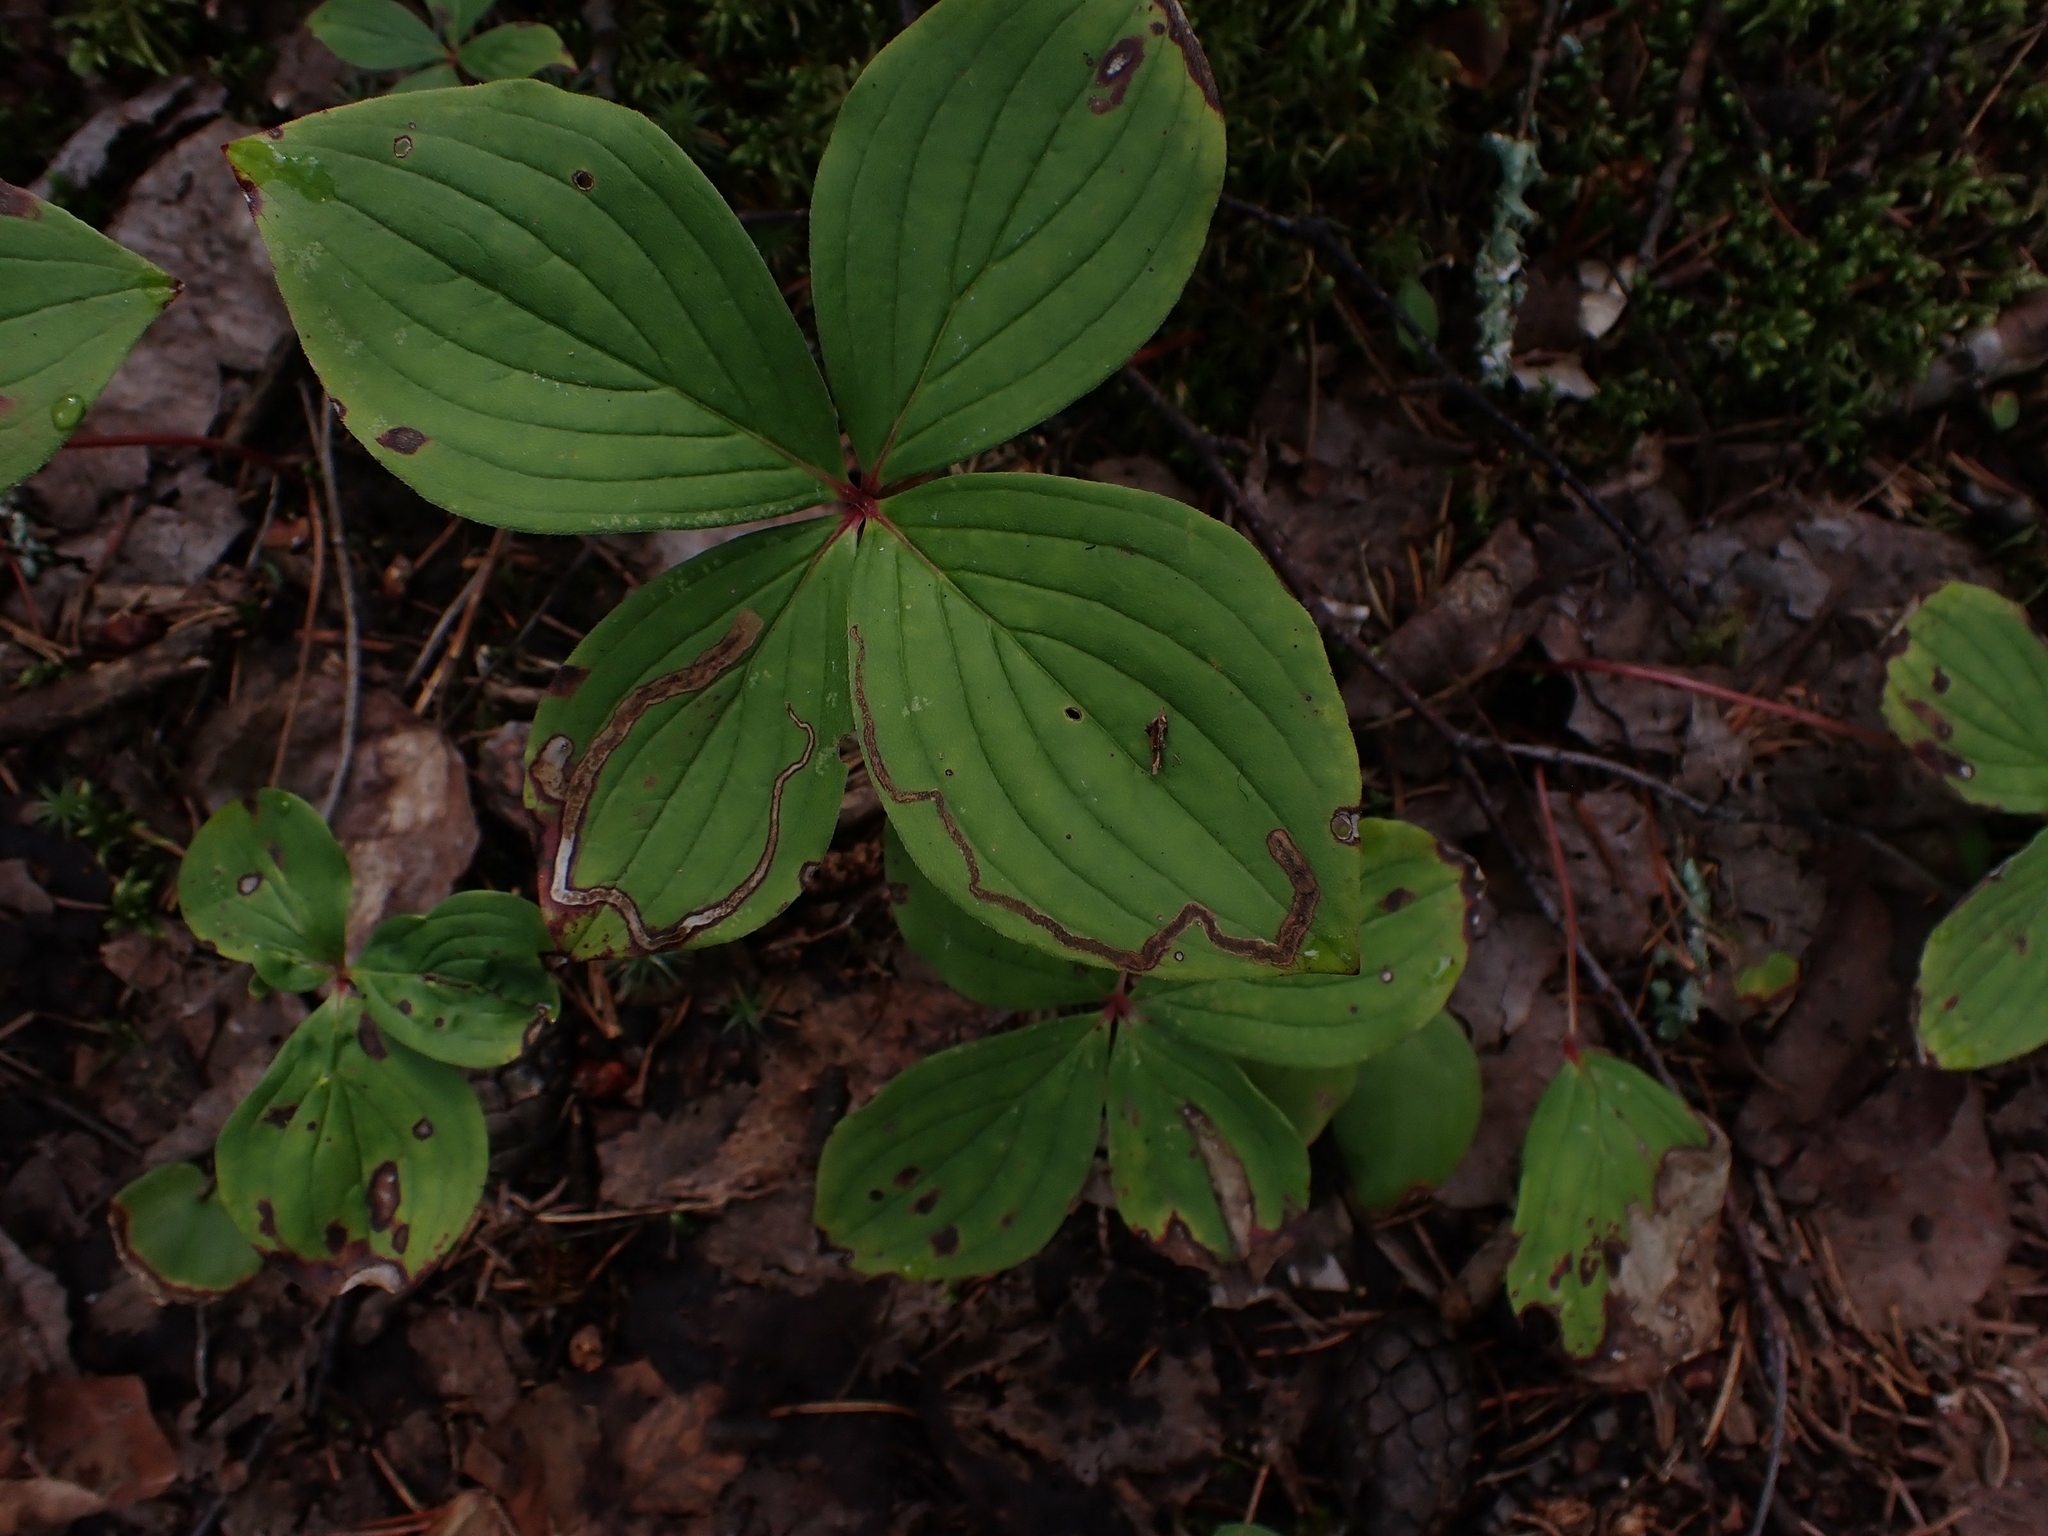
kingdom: Plantae
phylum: Tracheophyta
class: Magnoliopsida
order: Cornales
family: Cornaceae
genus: Cornus
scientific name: Cornus canadensis
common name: Creeping dogwood
